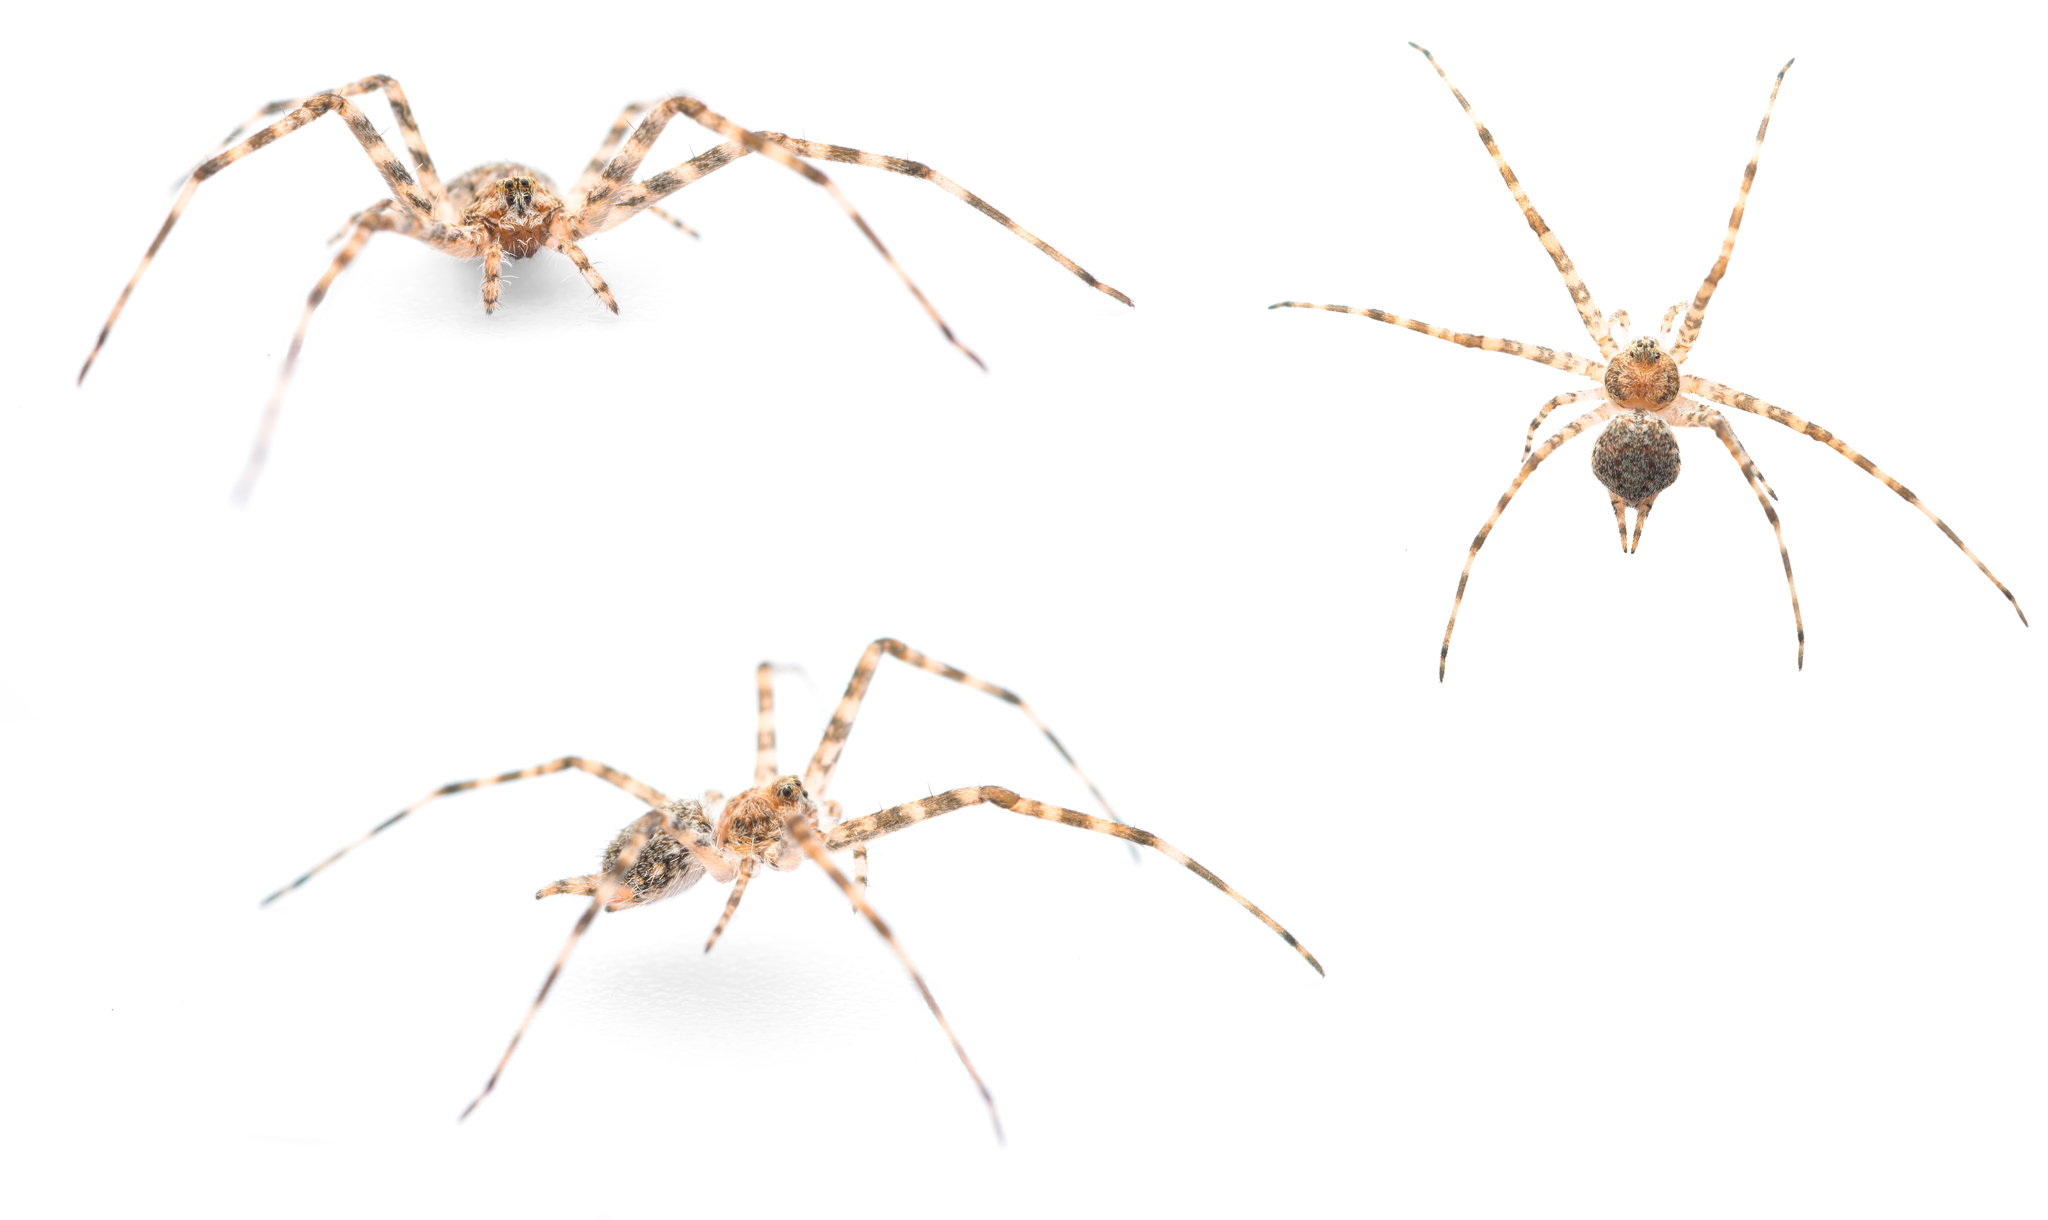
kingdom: Animalia
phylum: Arthropoda
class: Arachnida
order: Araneae
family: Hersiliidae
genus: Tama
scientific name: Tama edwardsi
